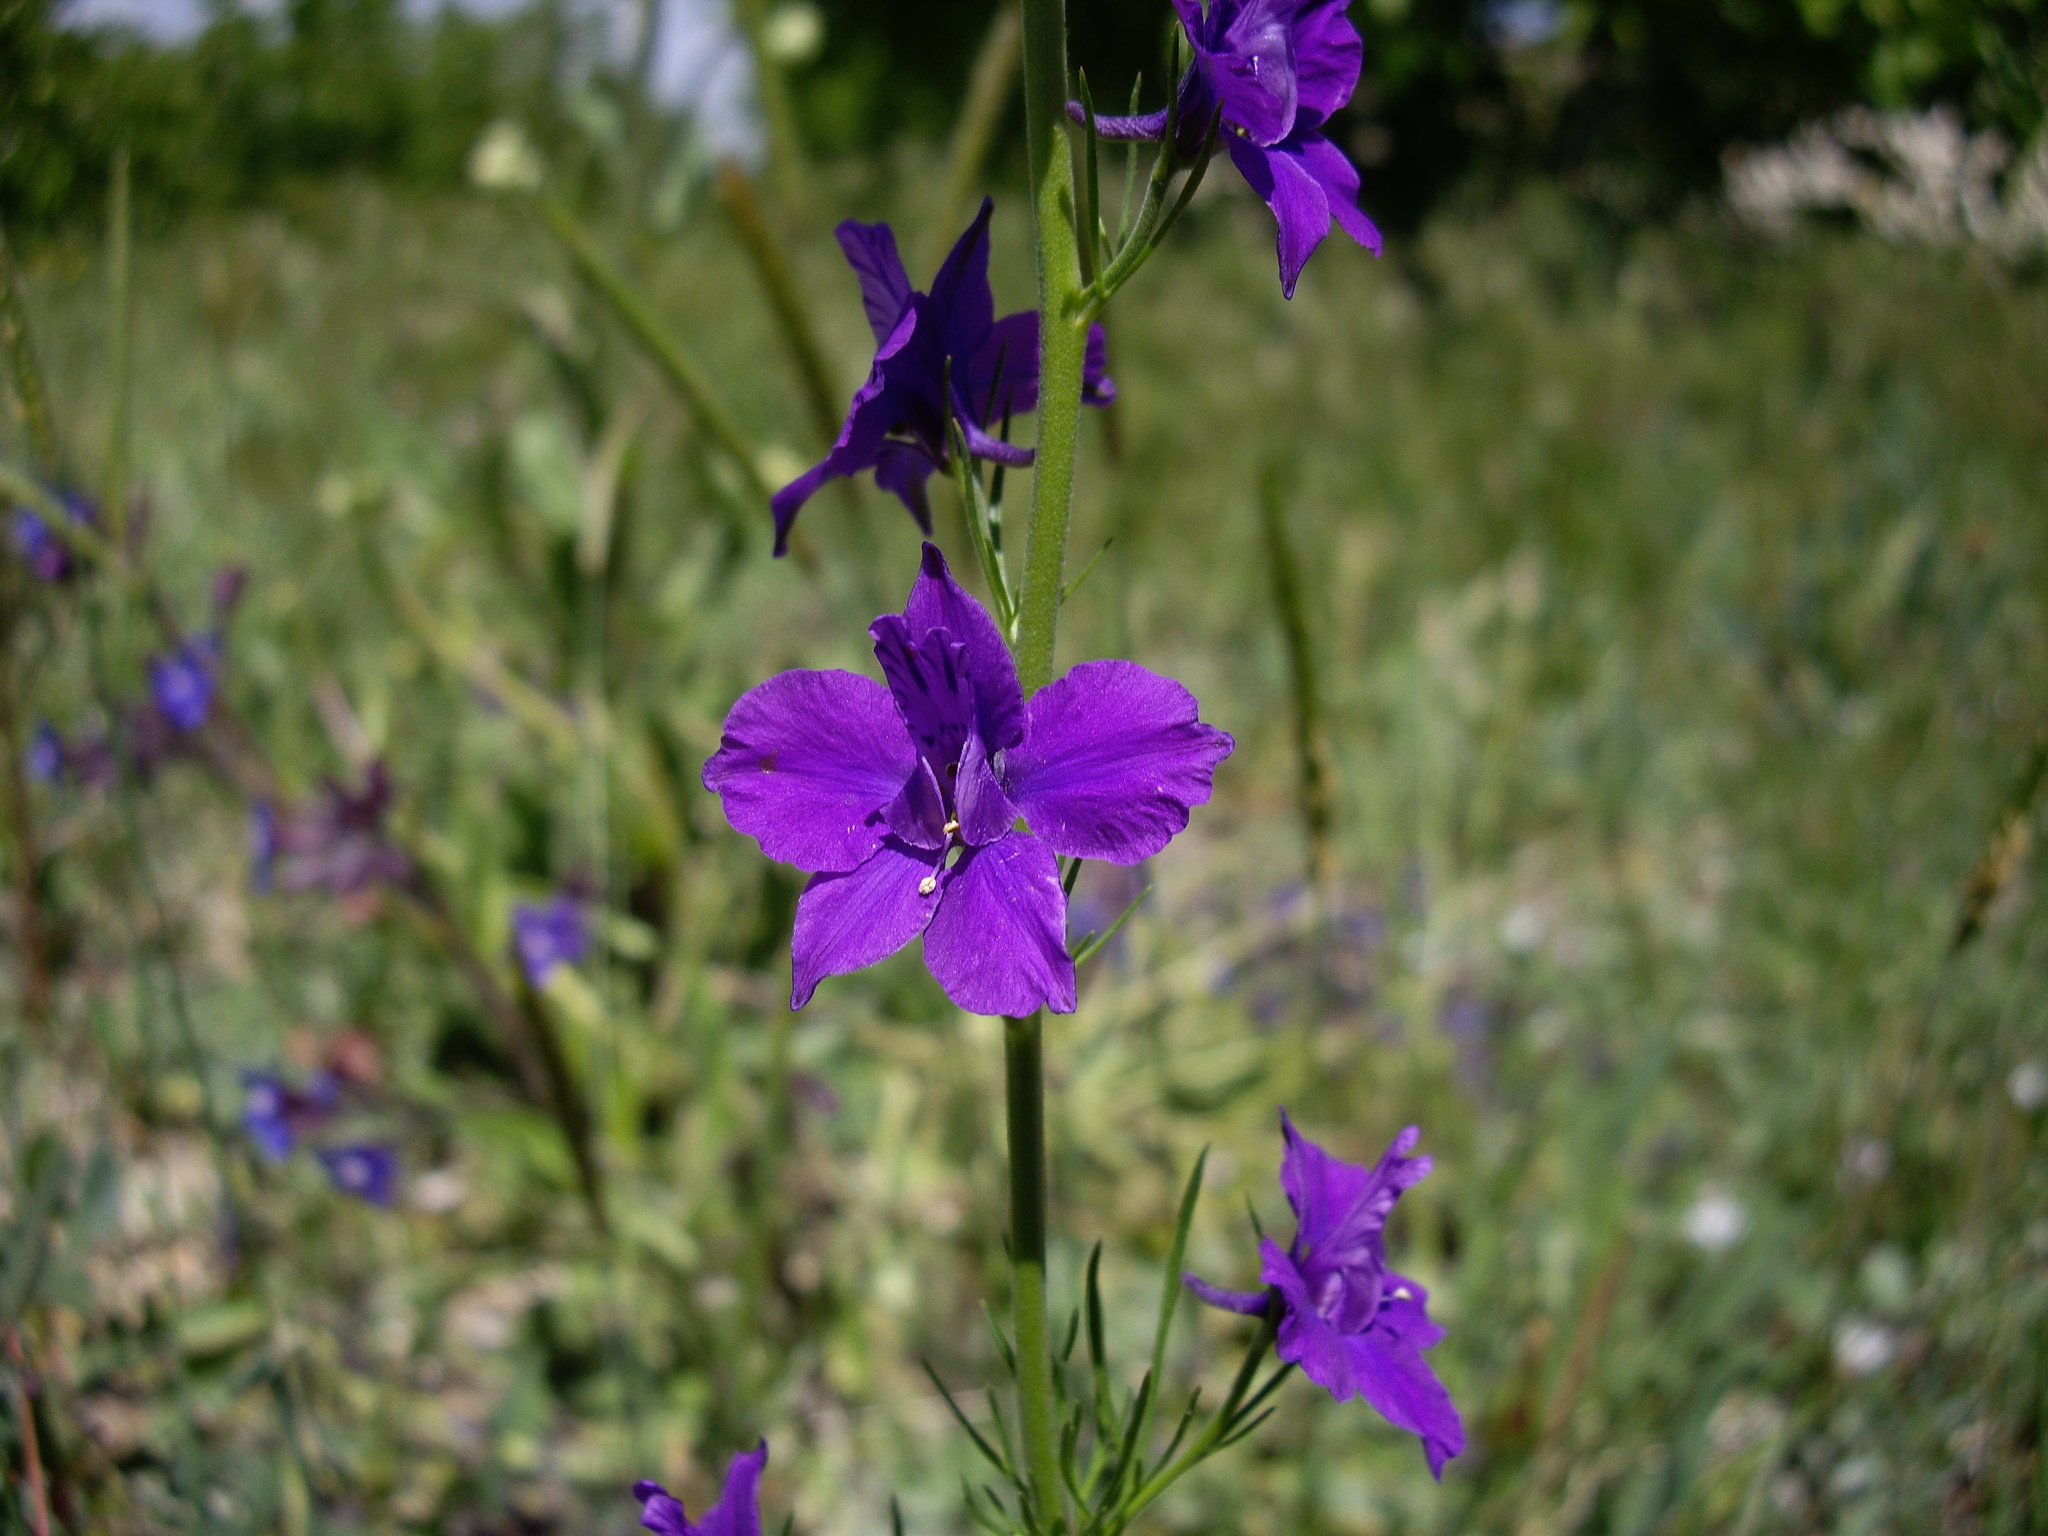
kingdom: Plantae
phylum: Tracheophyta
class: Magnoliopsida
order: Ranunculales
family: Ranunculaceae
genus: Delphinium
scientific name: Delphinium ajacis
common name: Doubtful knight's-spur
